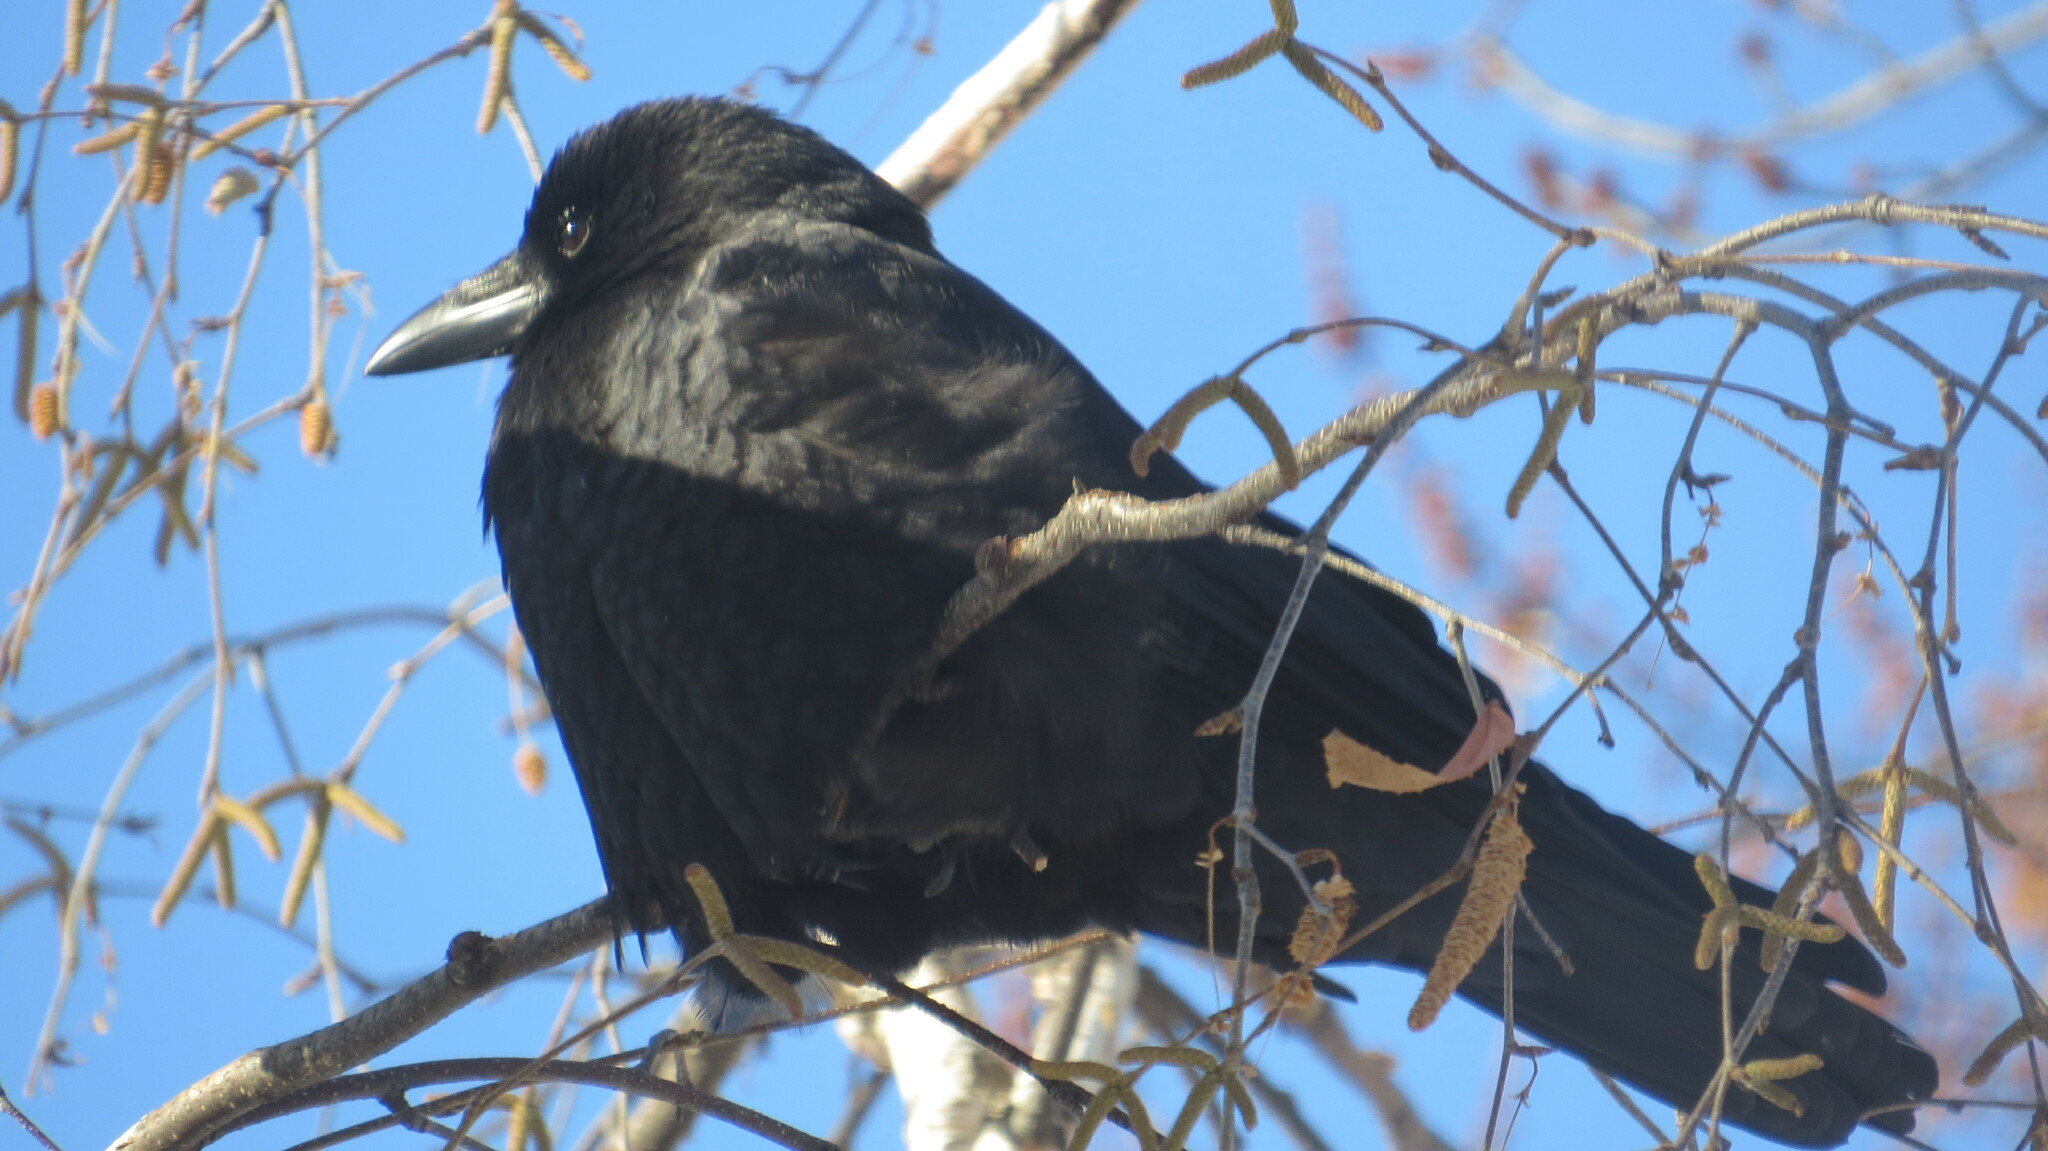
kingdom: Animalia
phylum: Chordata
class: Aves
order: Passeriformes
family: Corvidae
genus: Corvus
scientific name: Corvus brachyrhynchos
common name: American crow
